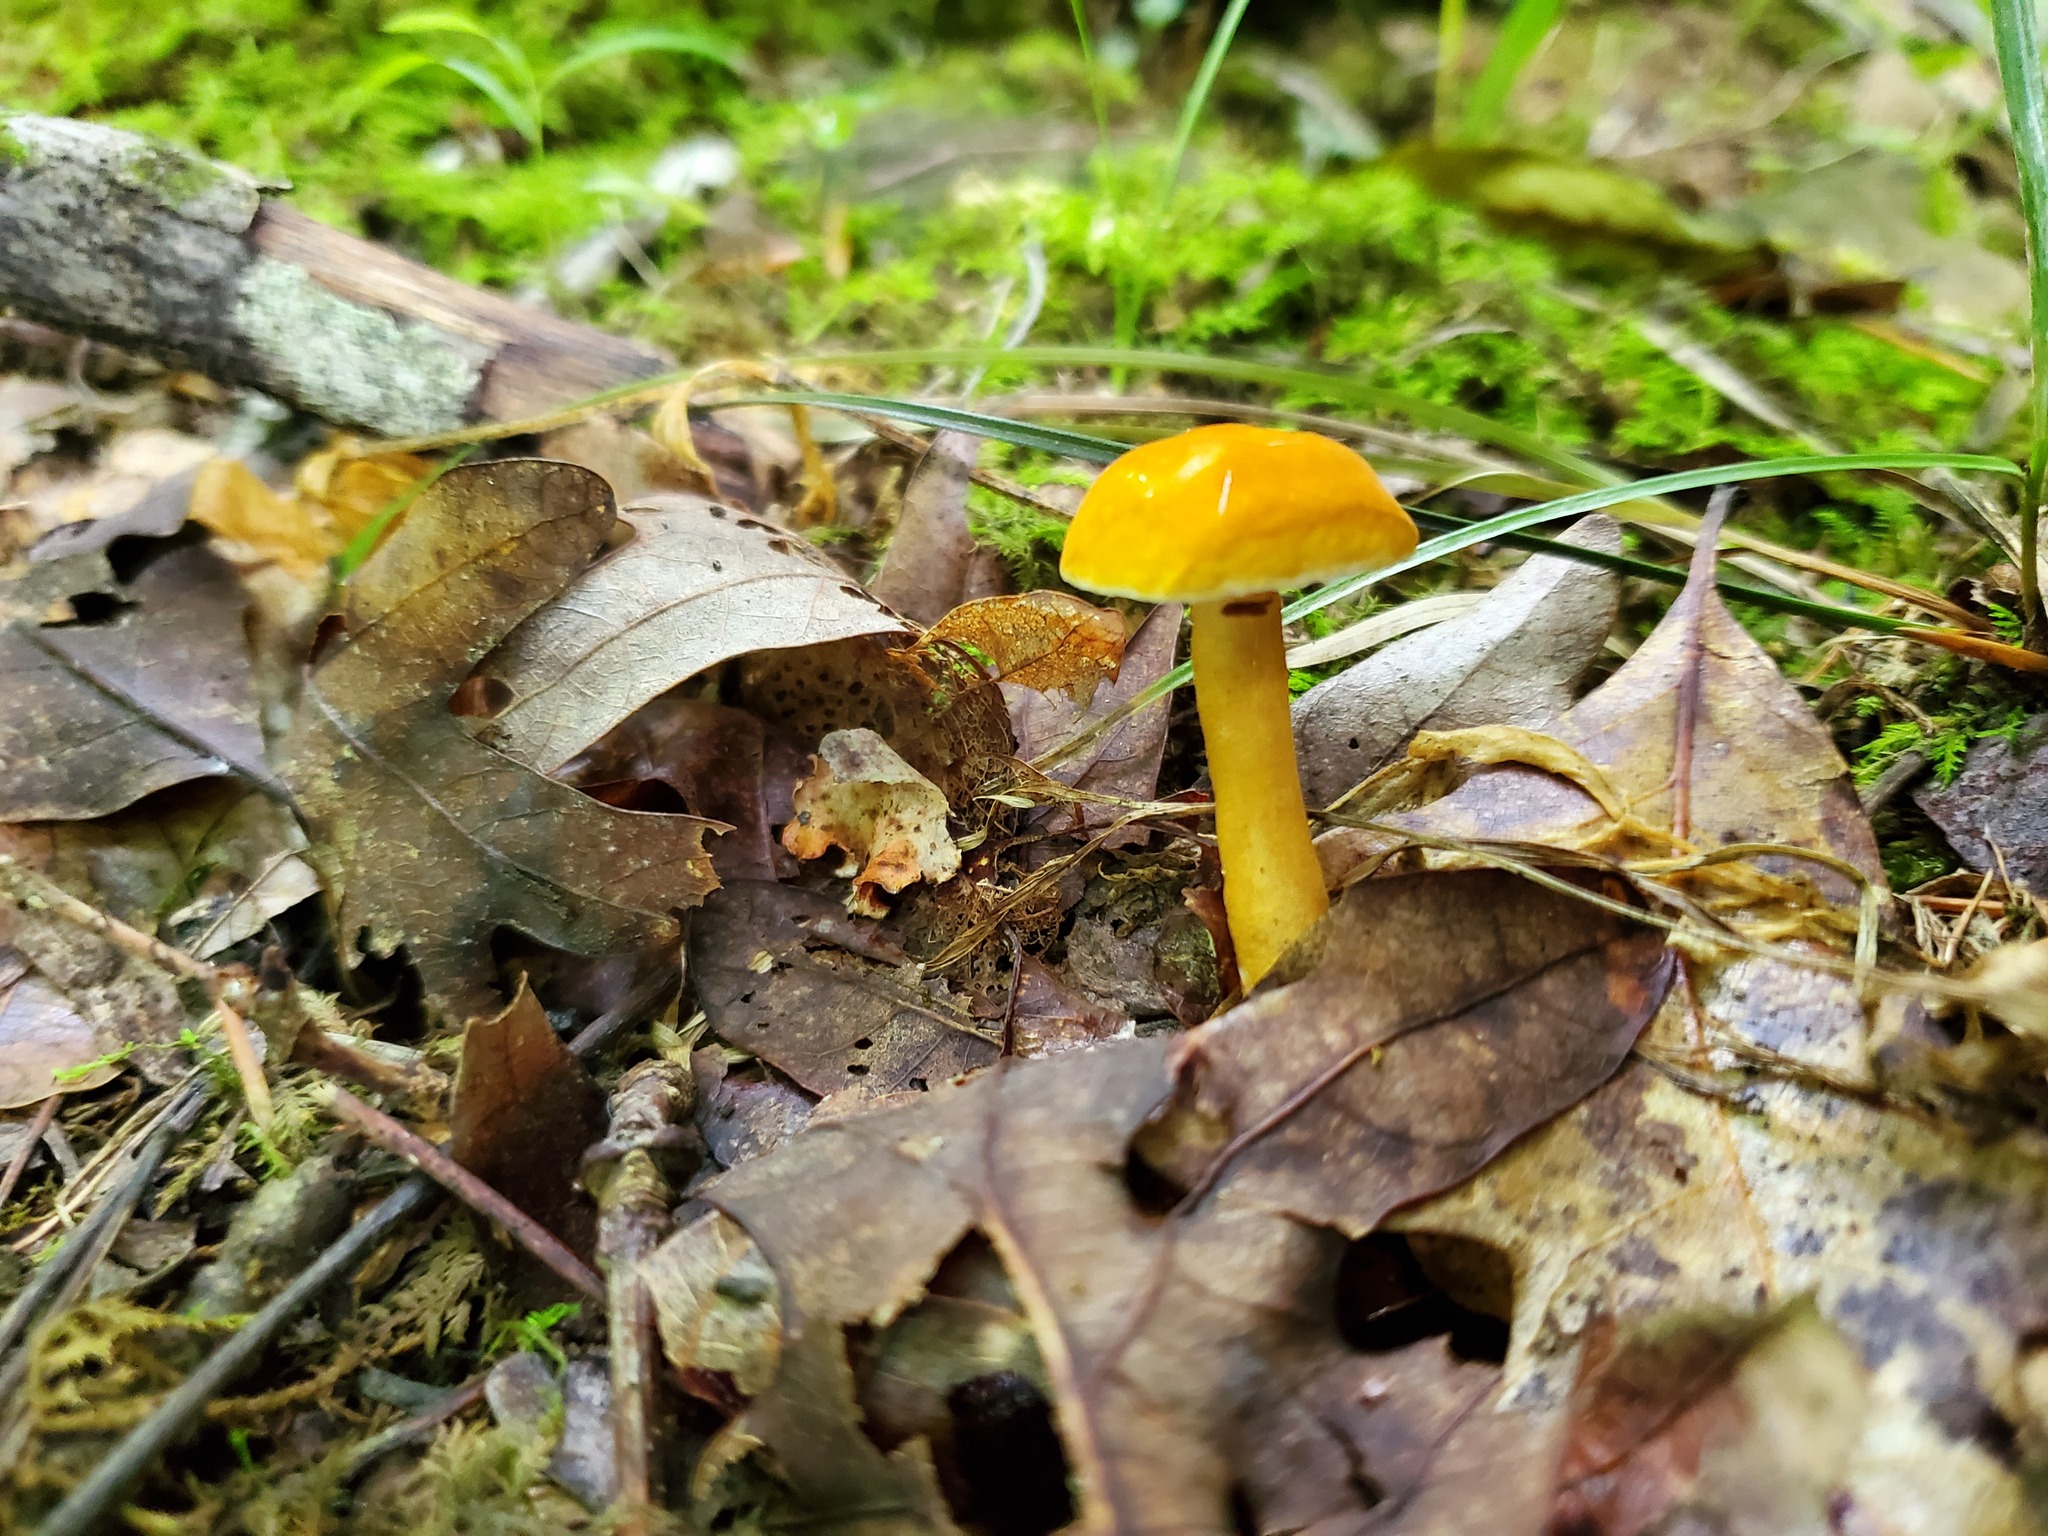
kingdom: Fungi
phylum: Basidiomycota
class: Agaricomycetes
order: Boletales
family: Gyroporaceae
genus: Gyroporus
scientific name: Gyroporus castaneus
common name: Chestnut bolete
